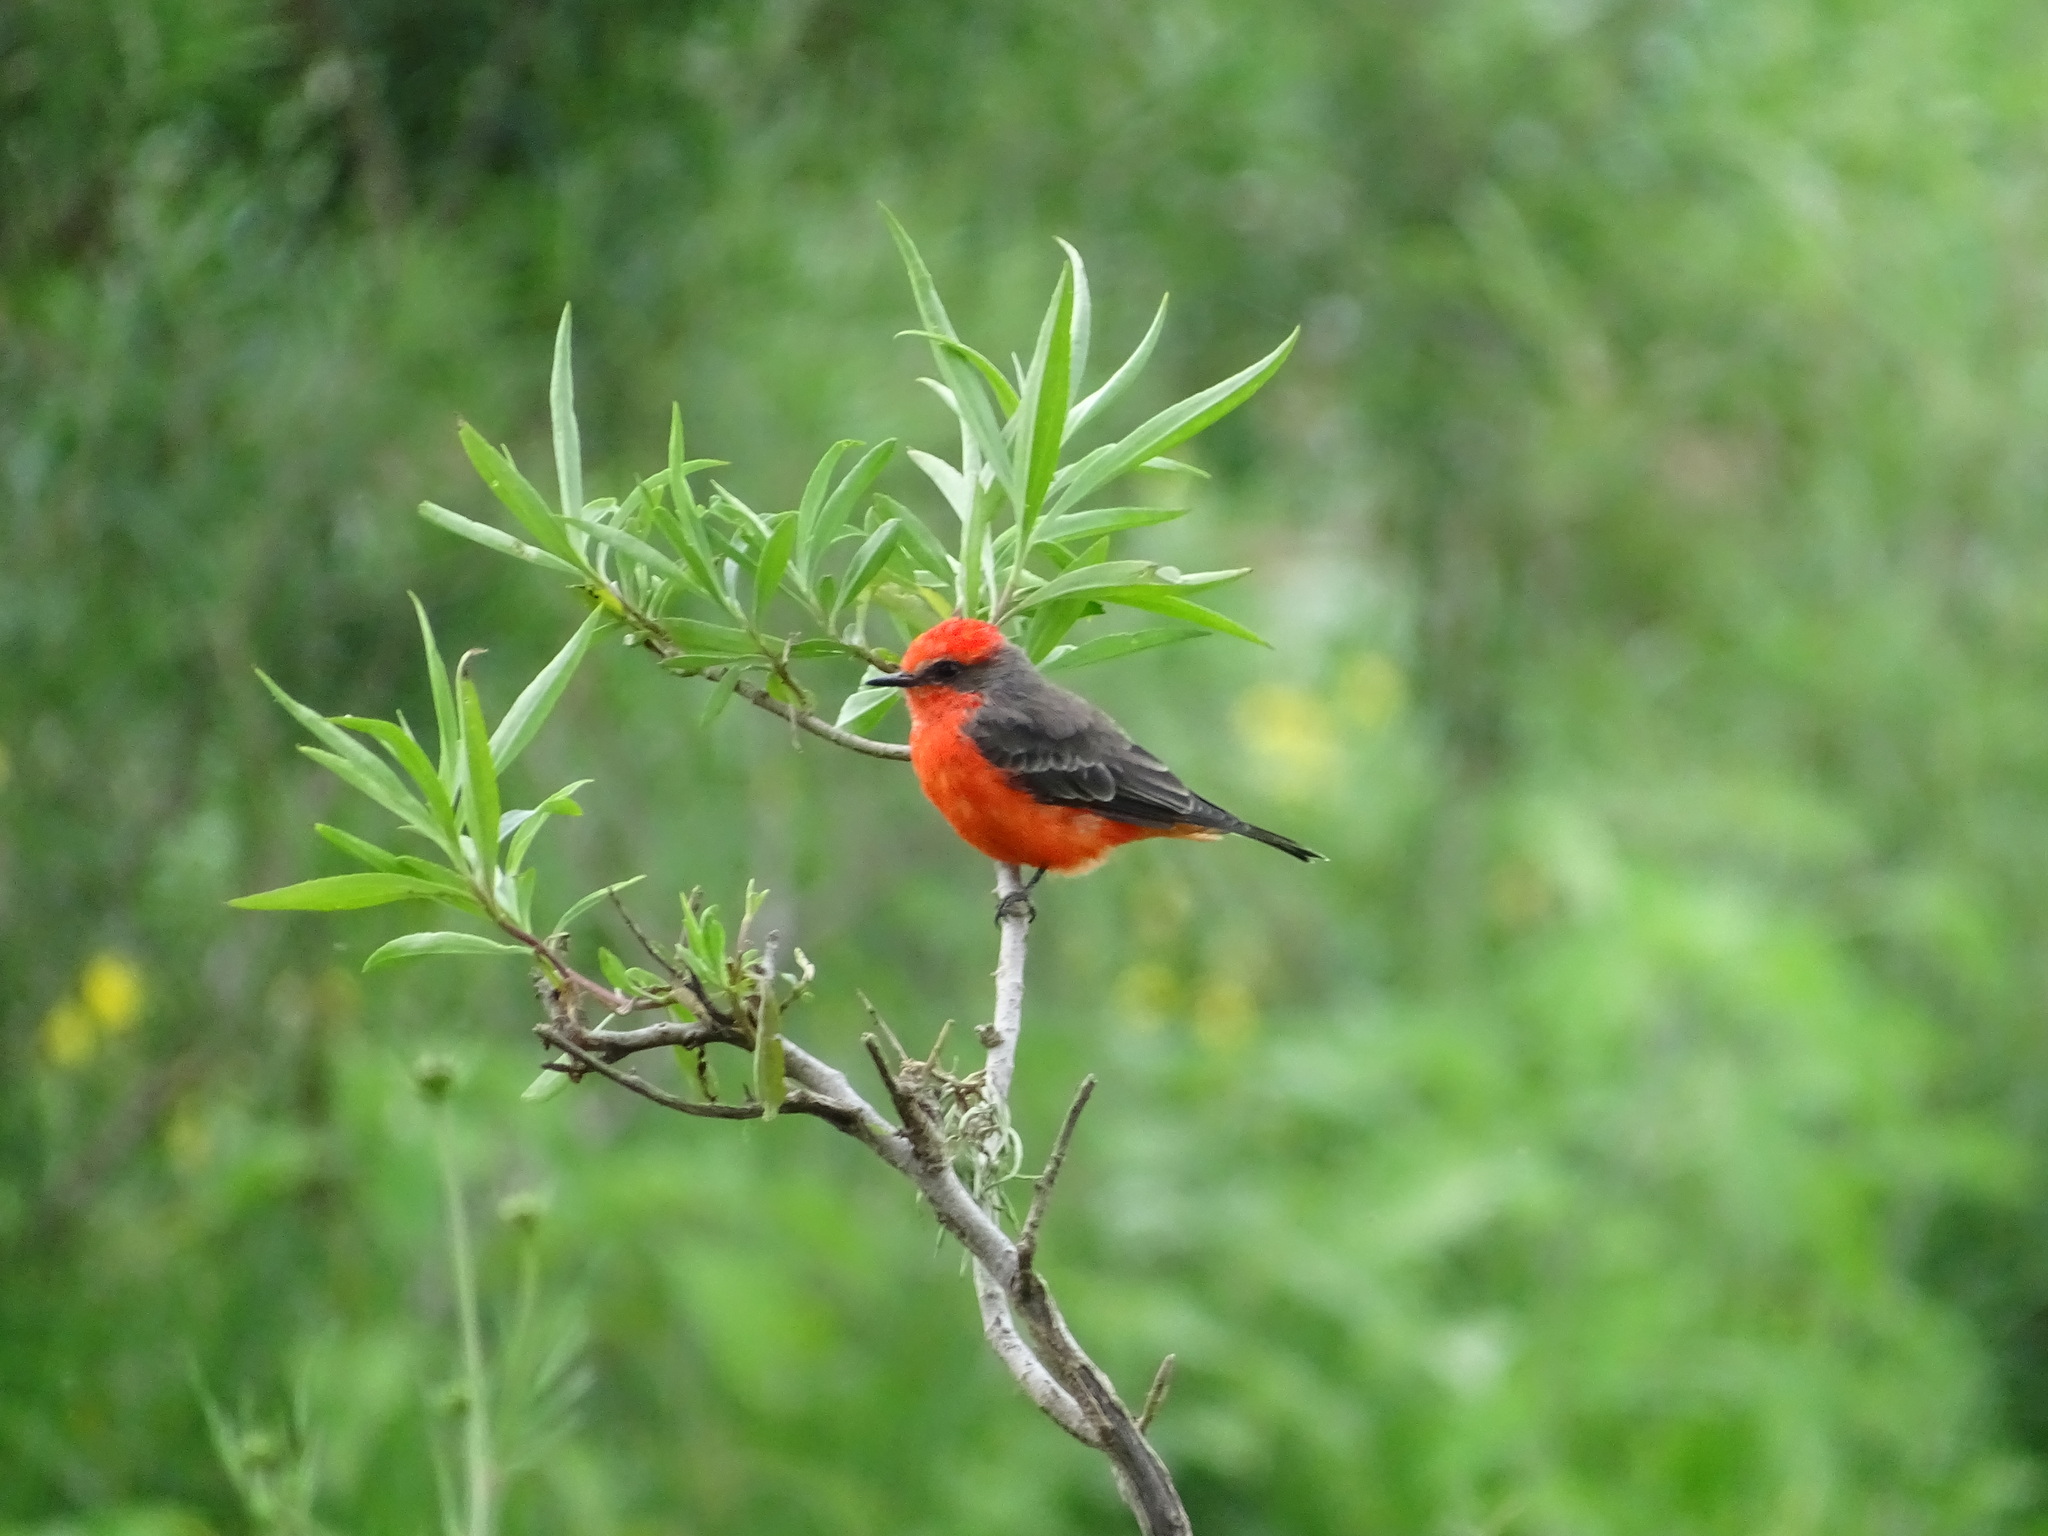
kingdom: Animalia
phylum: Chordata
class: Aves
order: Passeriformes
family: Tyrannidae
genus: Pyrocephalus
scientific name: Pyrocephalus rubinus
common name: Vermilion flycatcher
